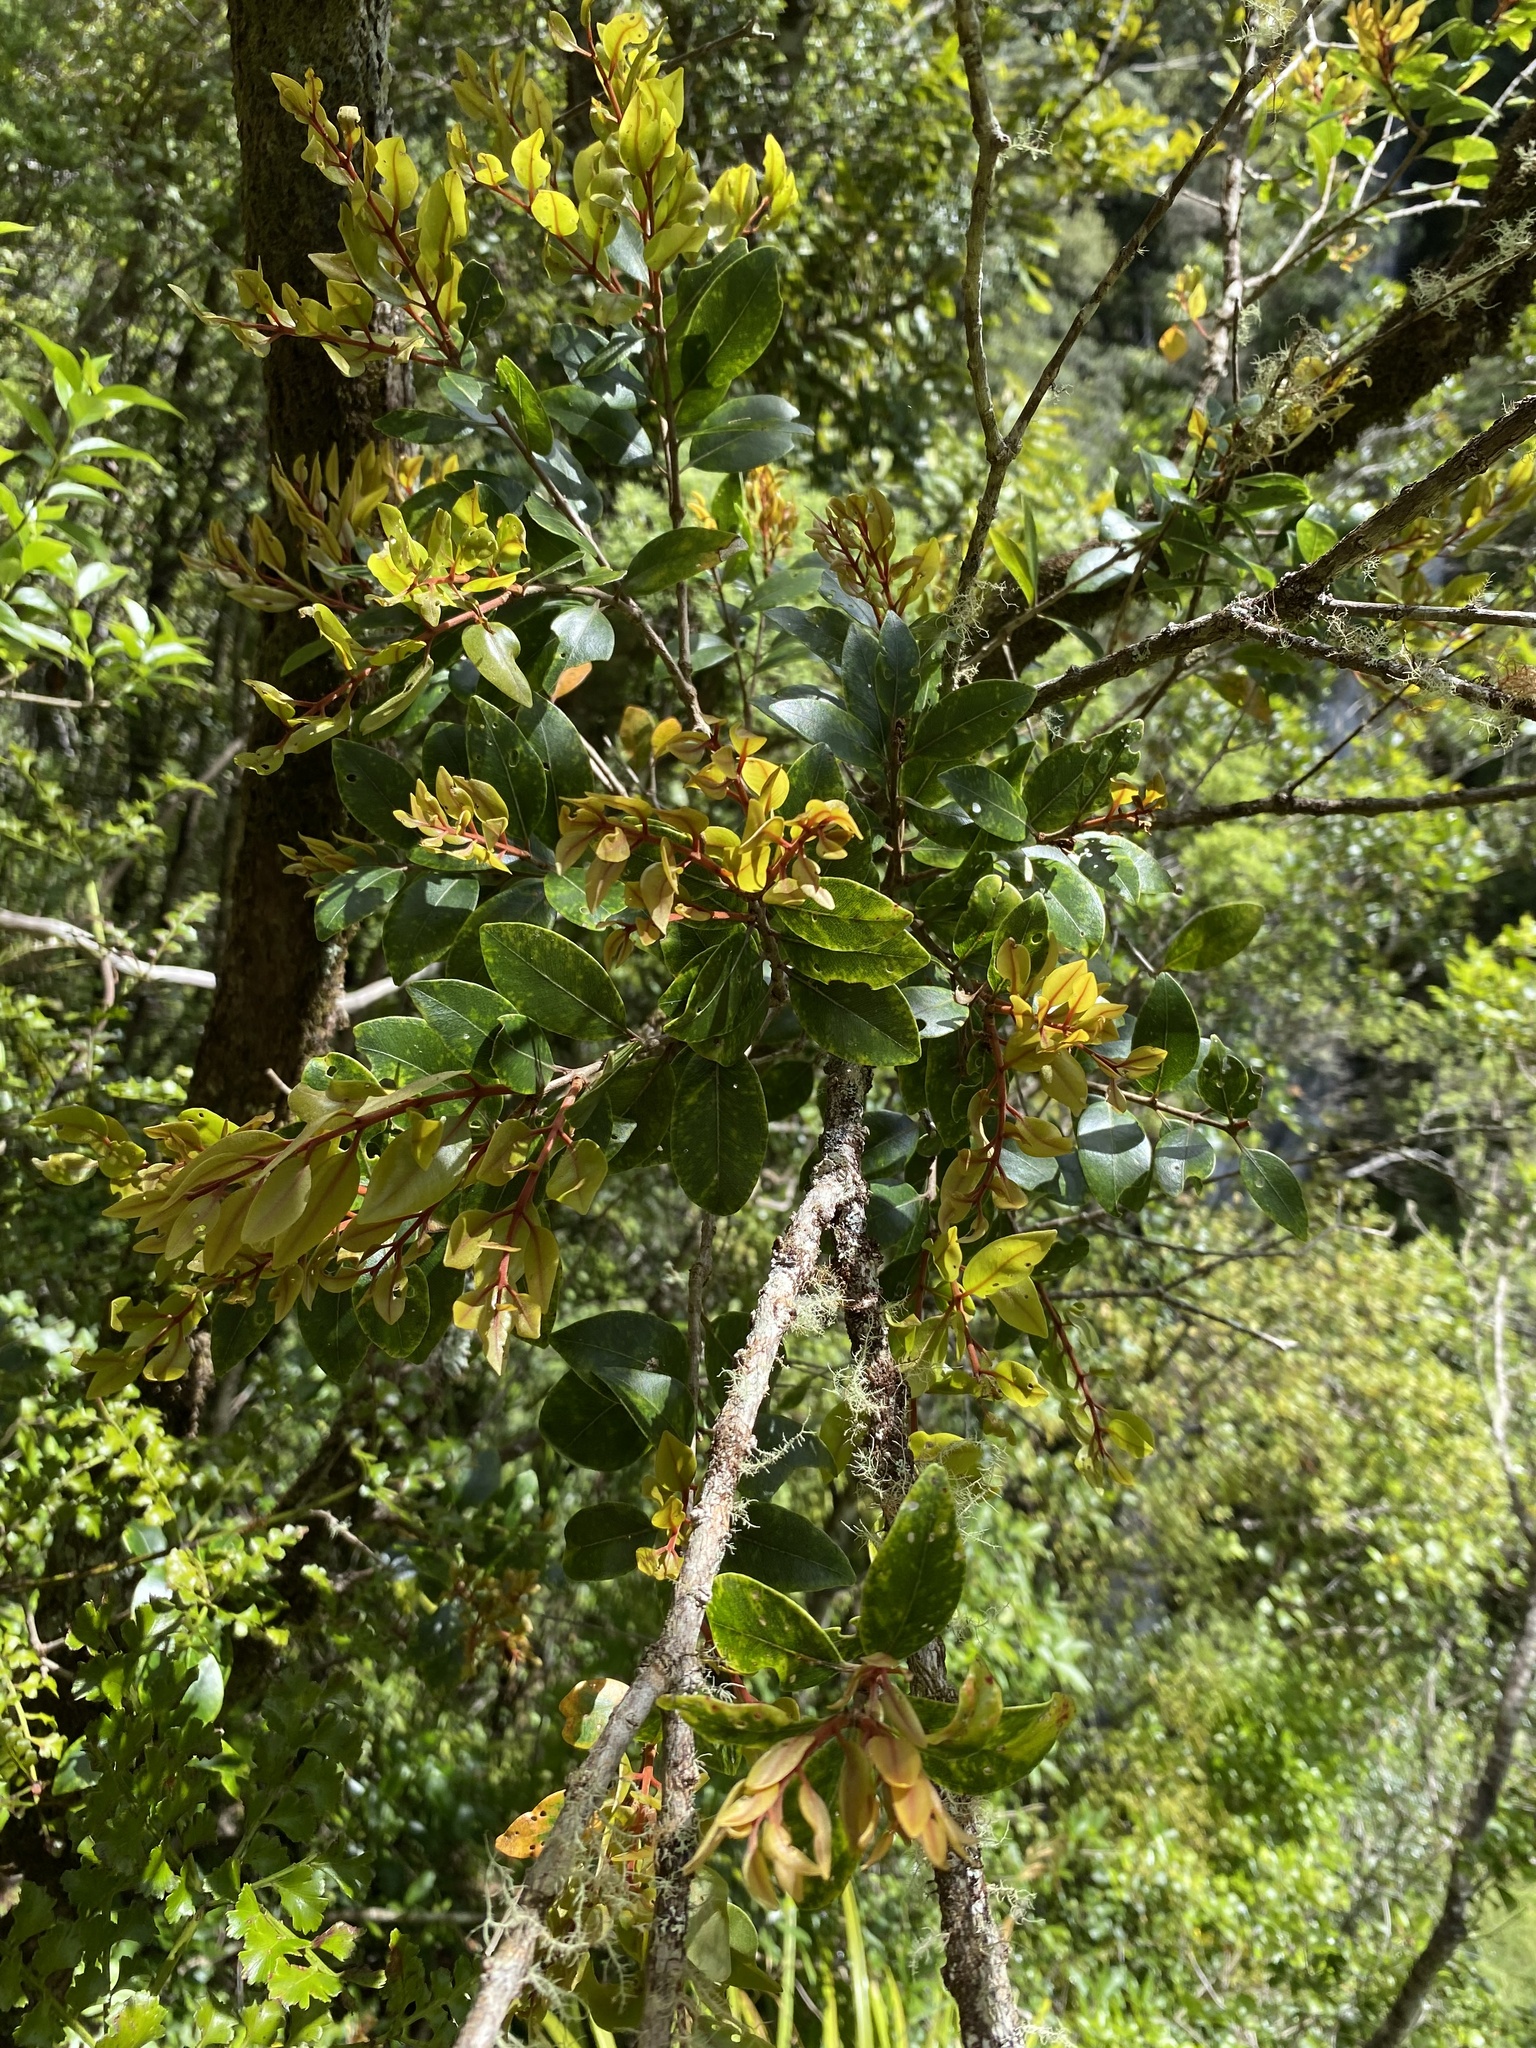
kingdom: Plantae
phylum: Tracheophyta
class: Magnoliopsida
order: Myrtales
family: Myrtaceae
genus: Metrosideros
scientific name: Metrosideros robusta
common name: Northern rata
